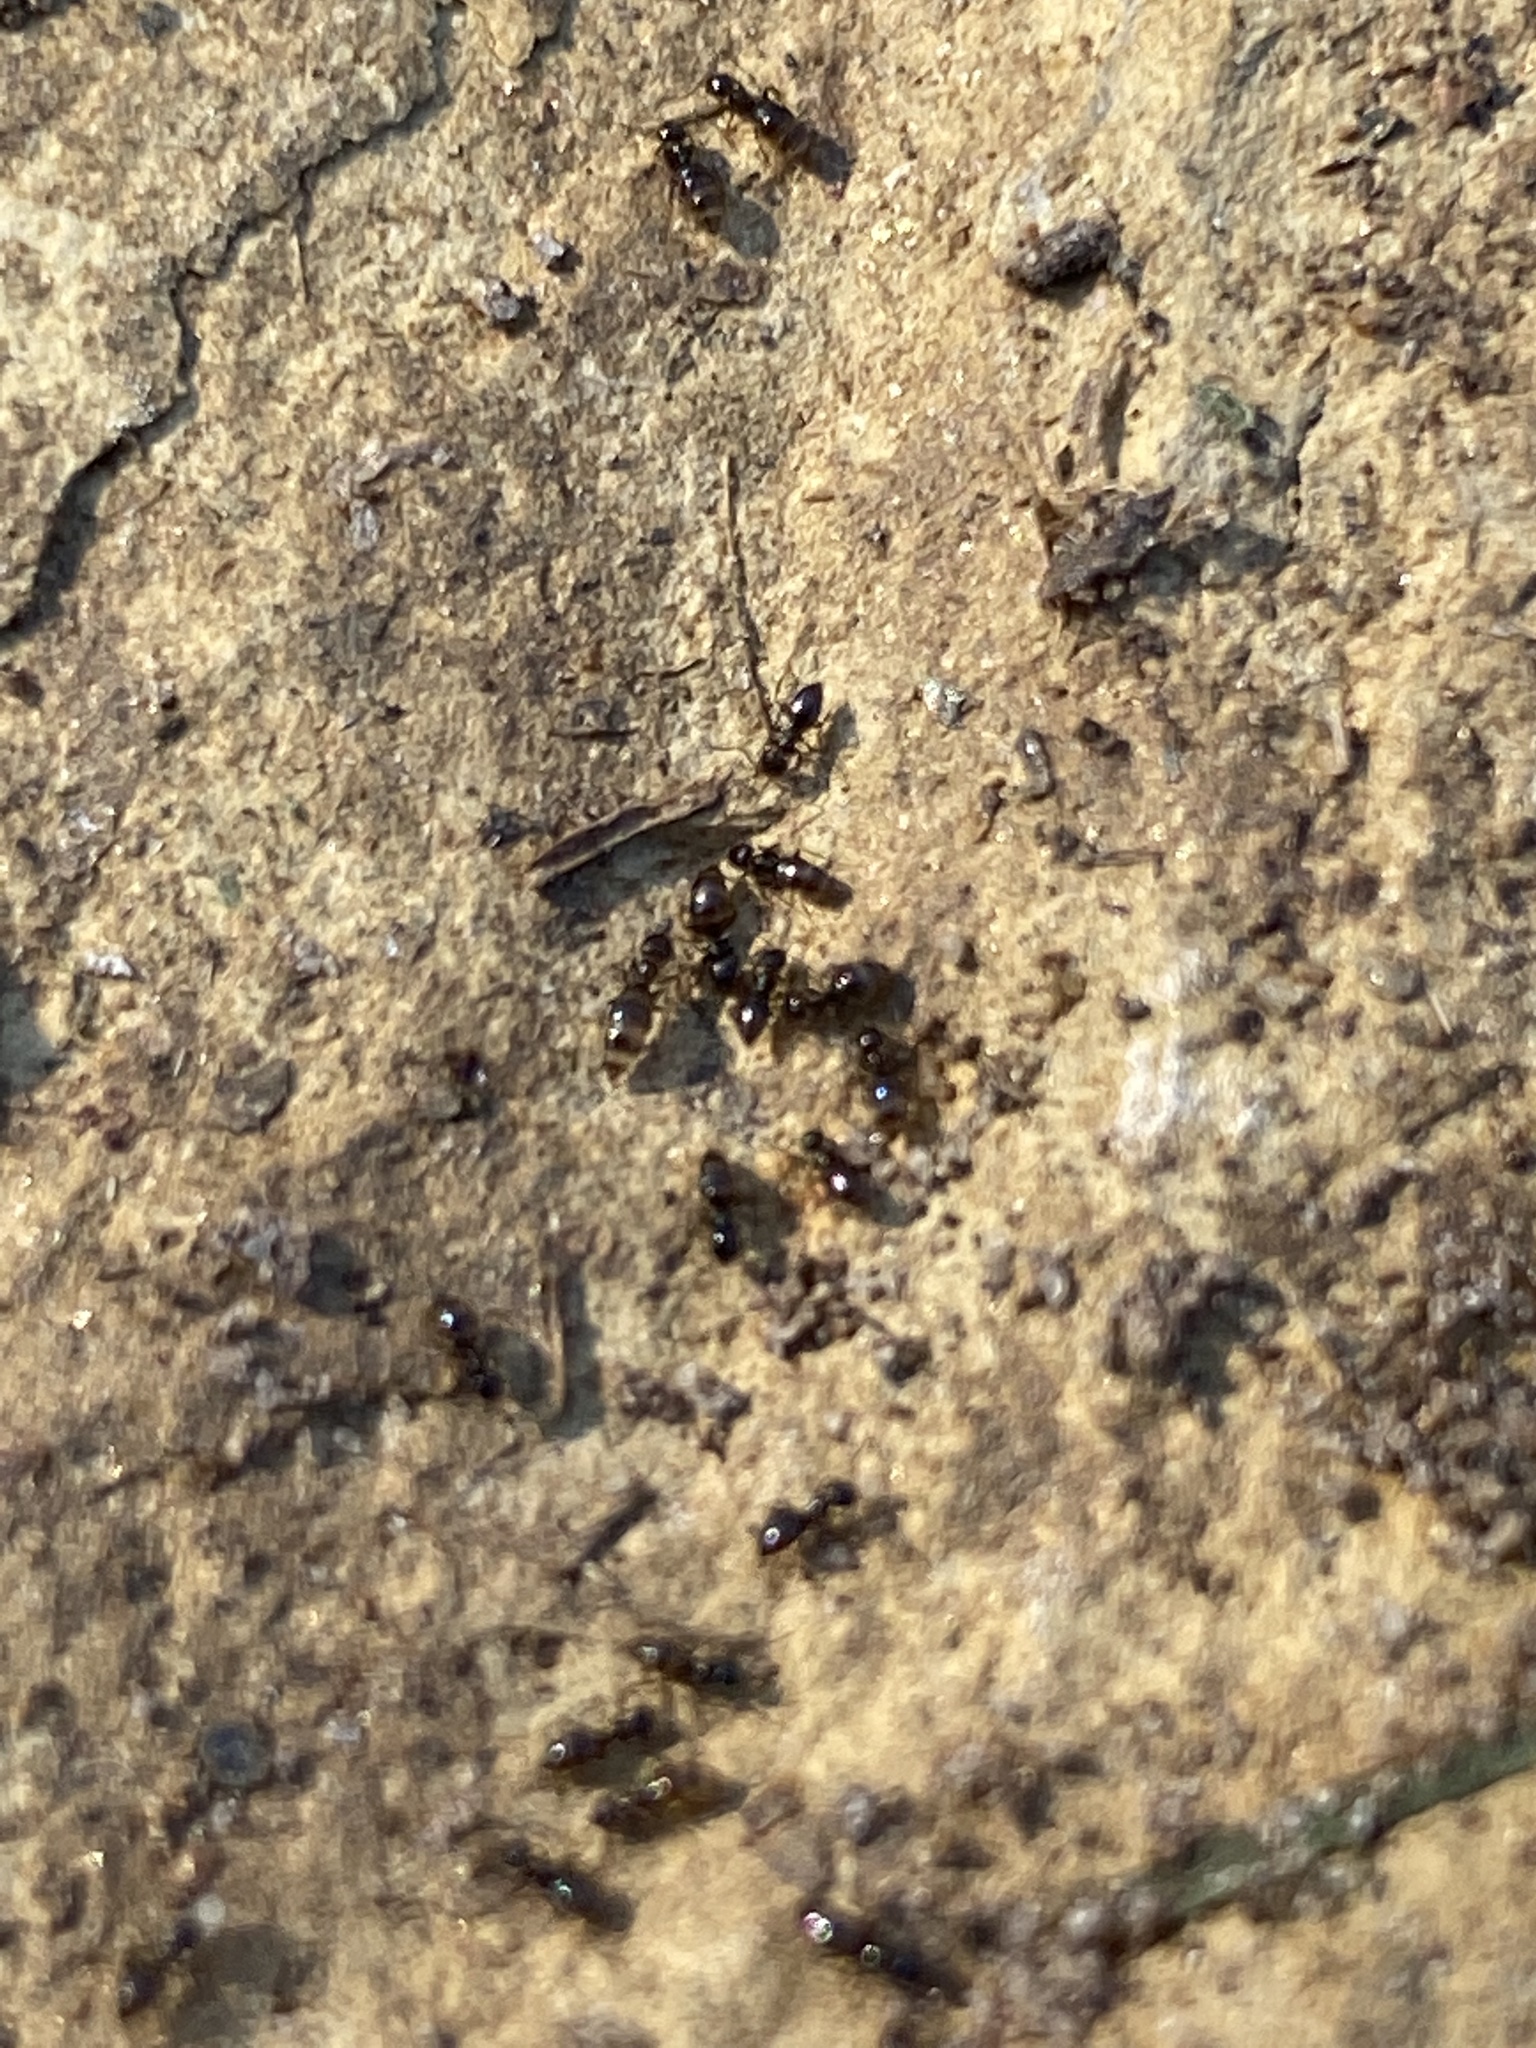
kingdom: Animalia
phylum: Arthropoda
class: Insecta
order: Hymenoptera
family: Formicidae
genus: Brachymyrmex
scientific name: Brachymyrmex patagonicus
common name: Dark rover ant
